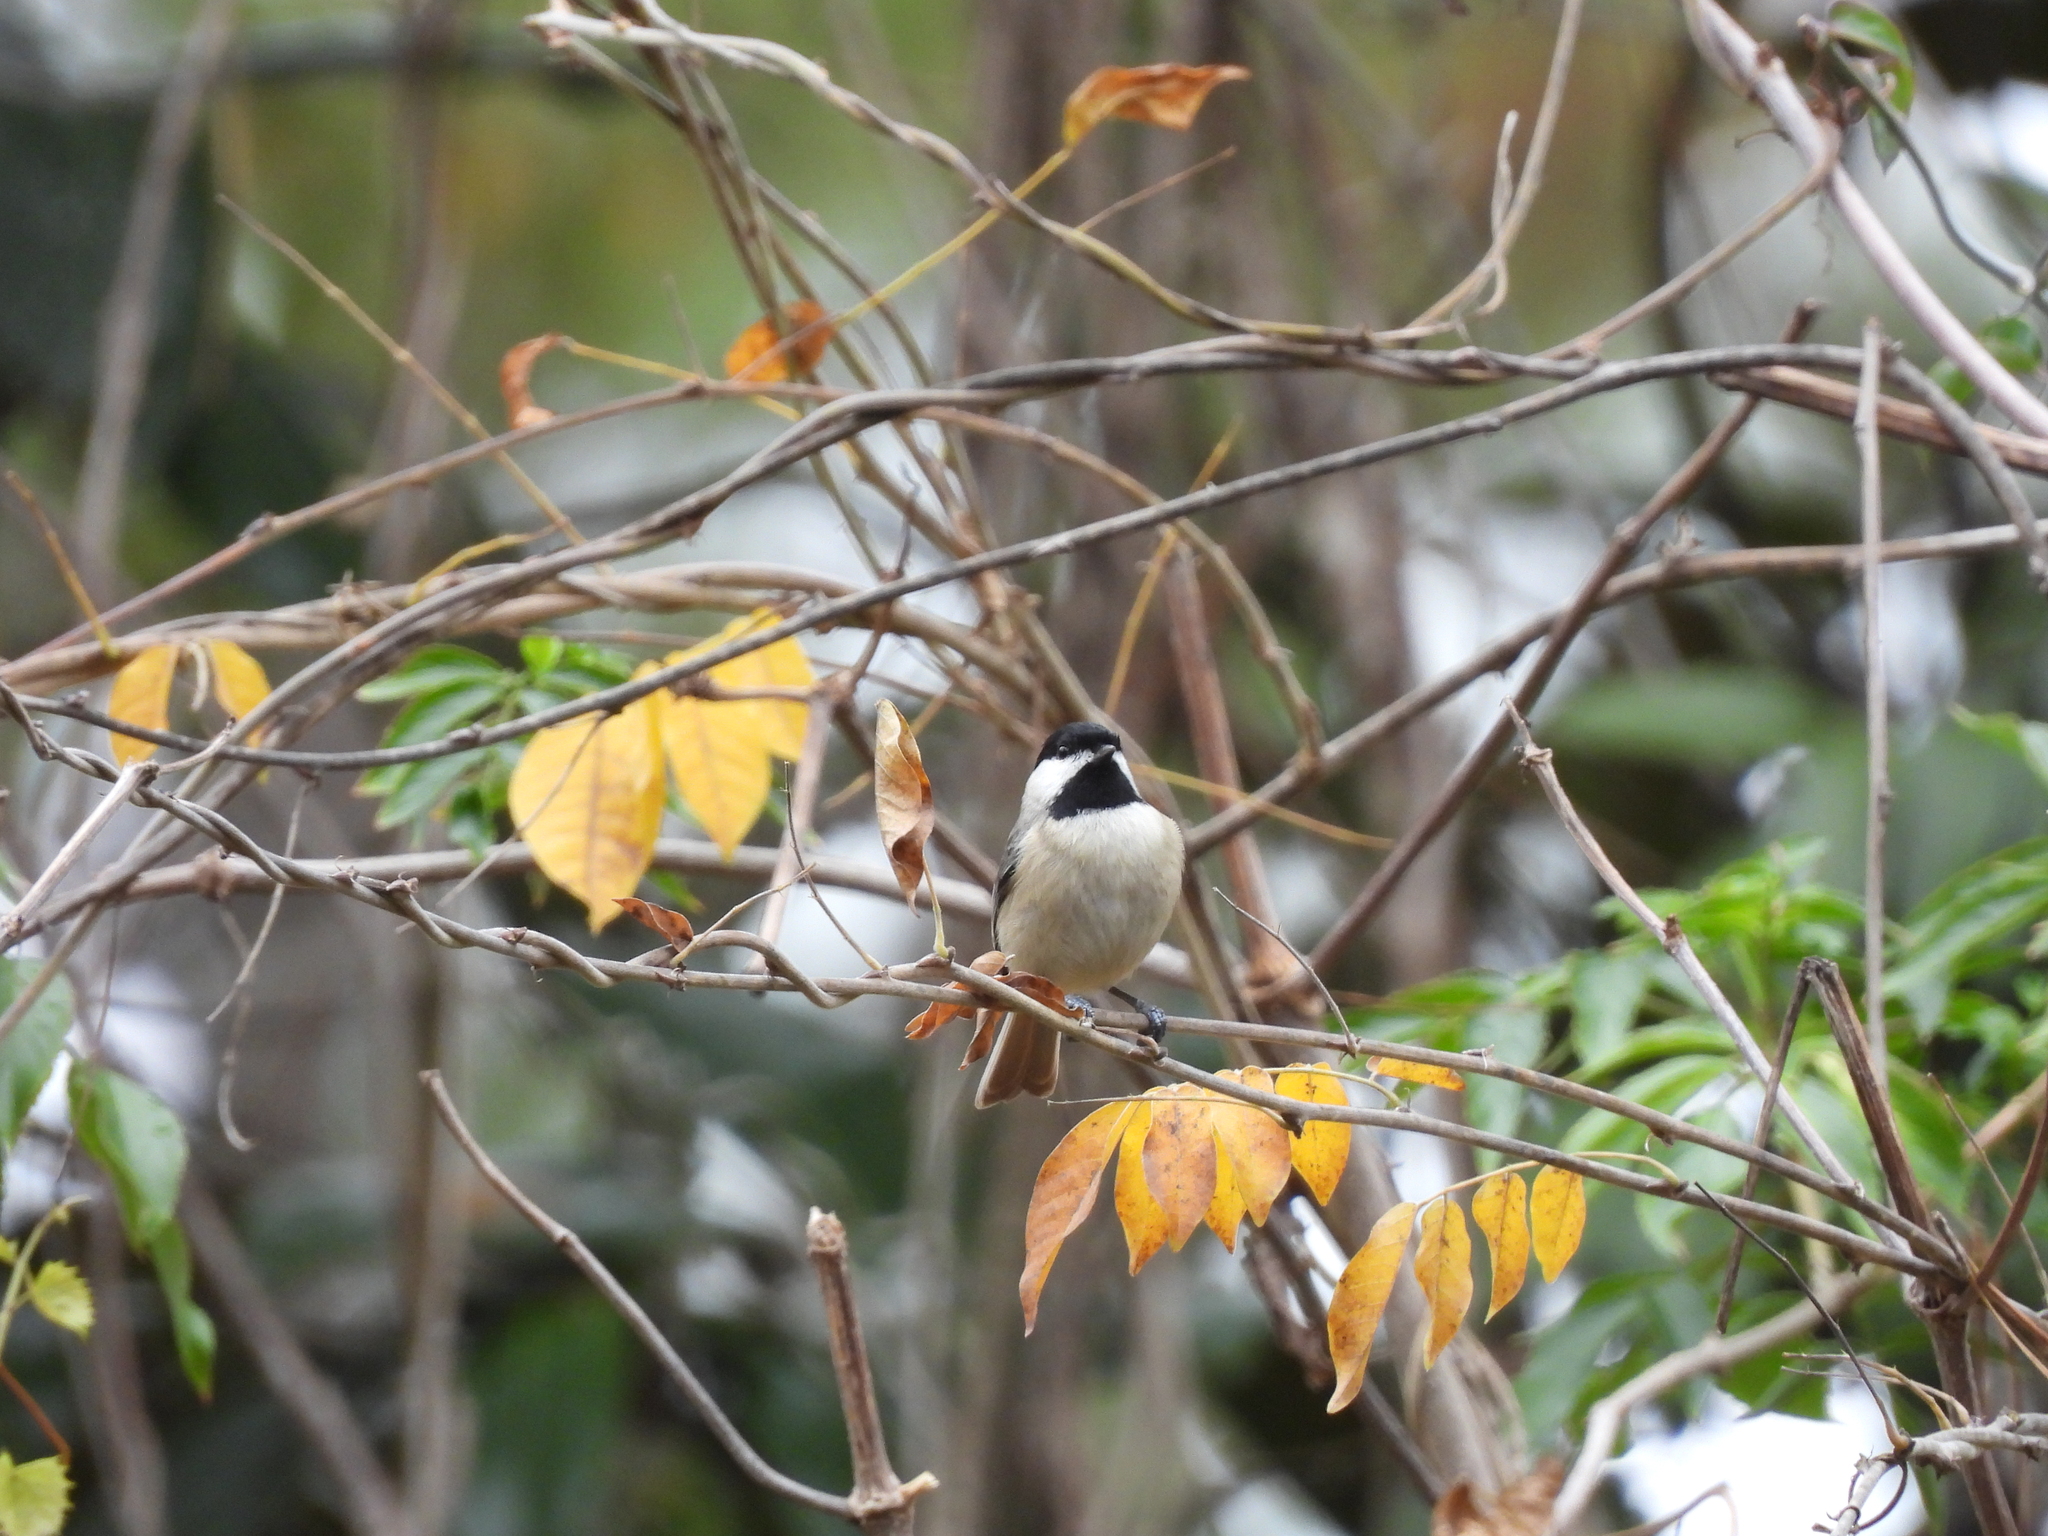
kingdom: Animalia
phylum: Chordata
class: Aves
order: Passeriformes
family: Paridae
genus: Poecile
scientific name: Poecile carolinensis
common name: Carolina chickadee
